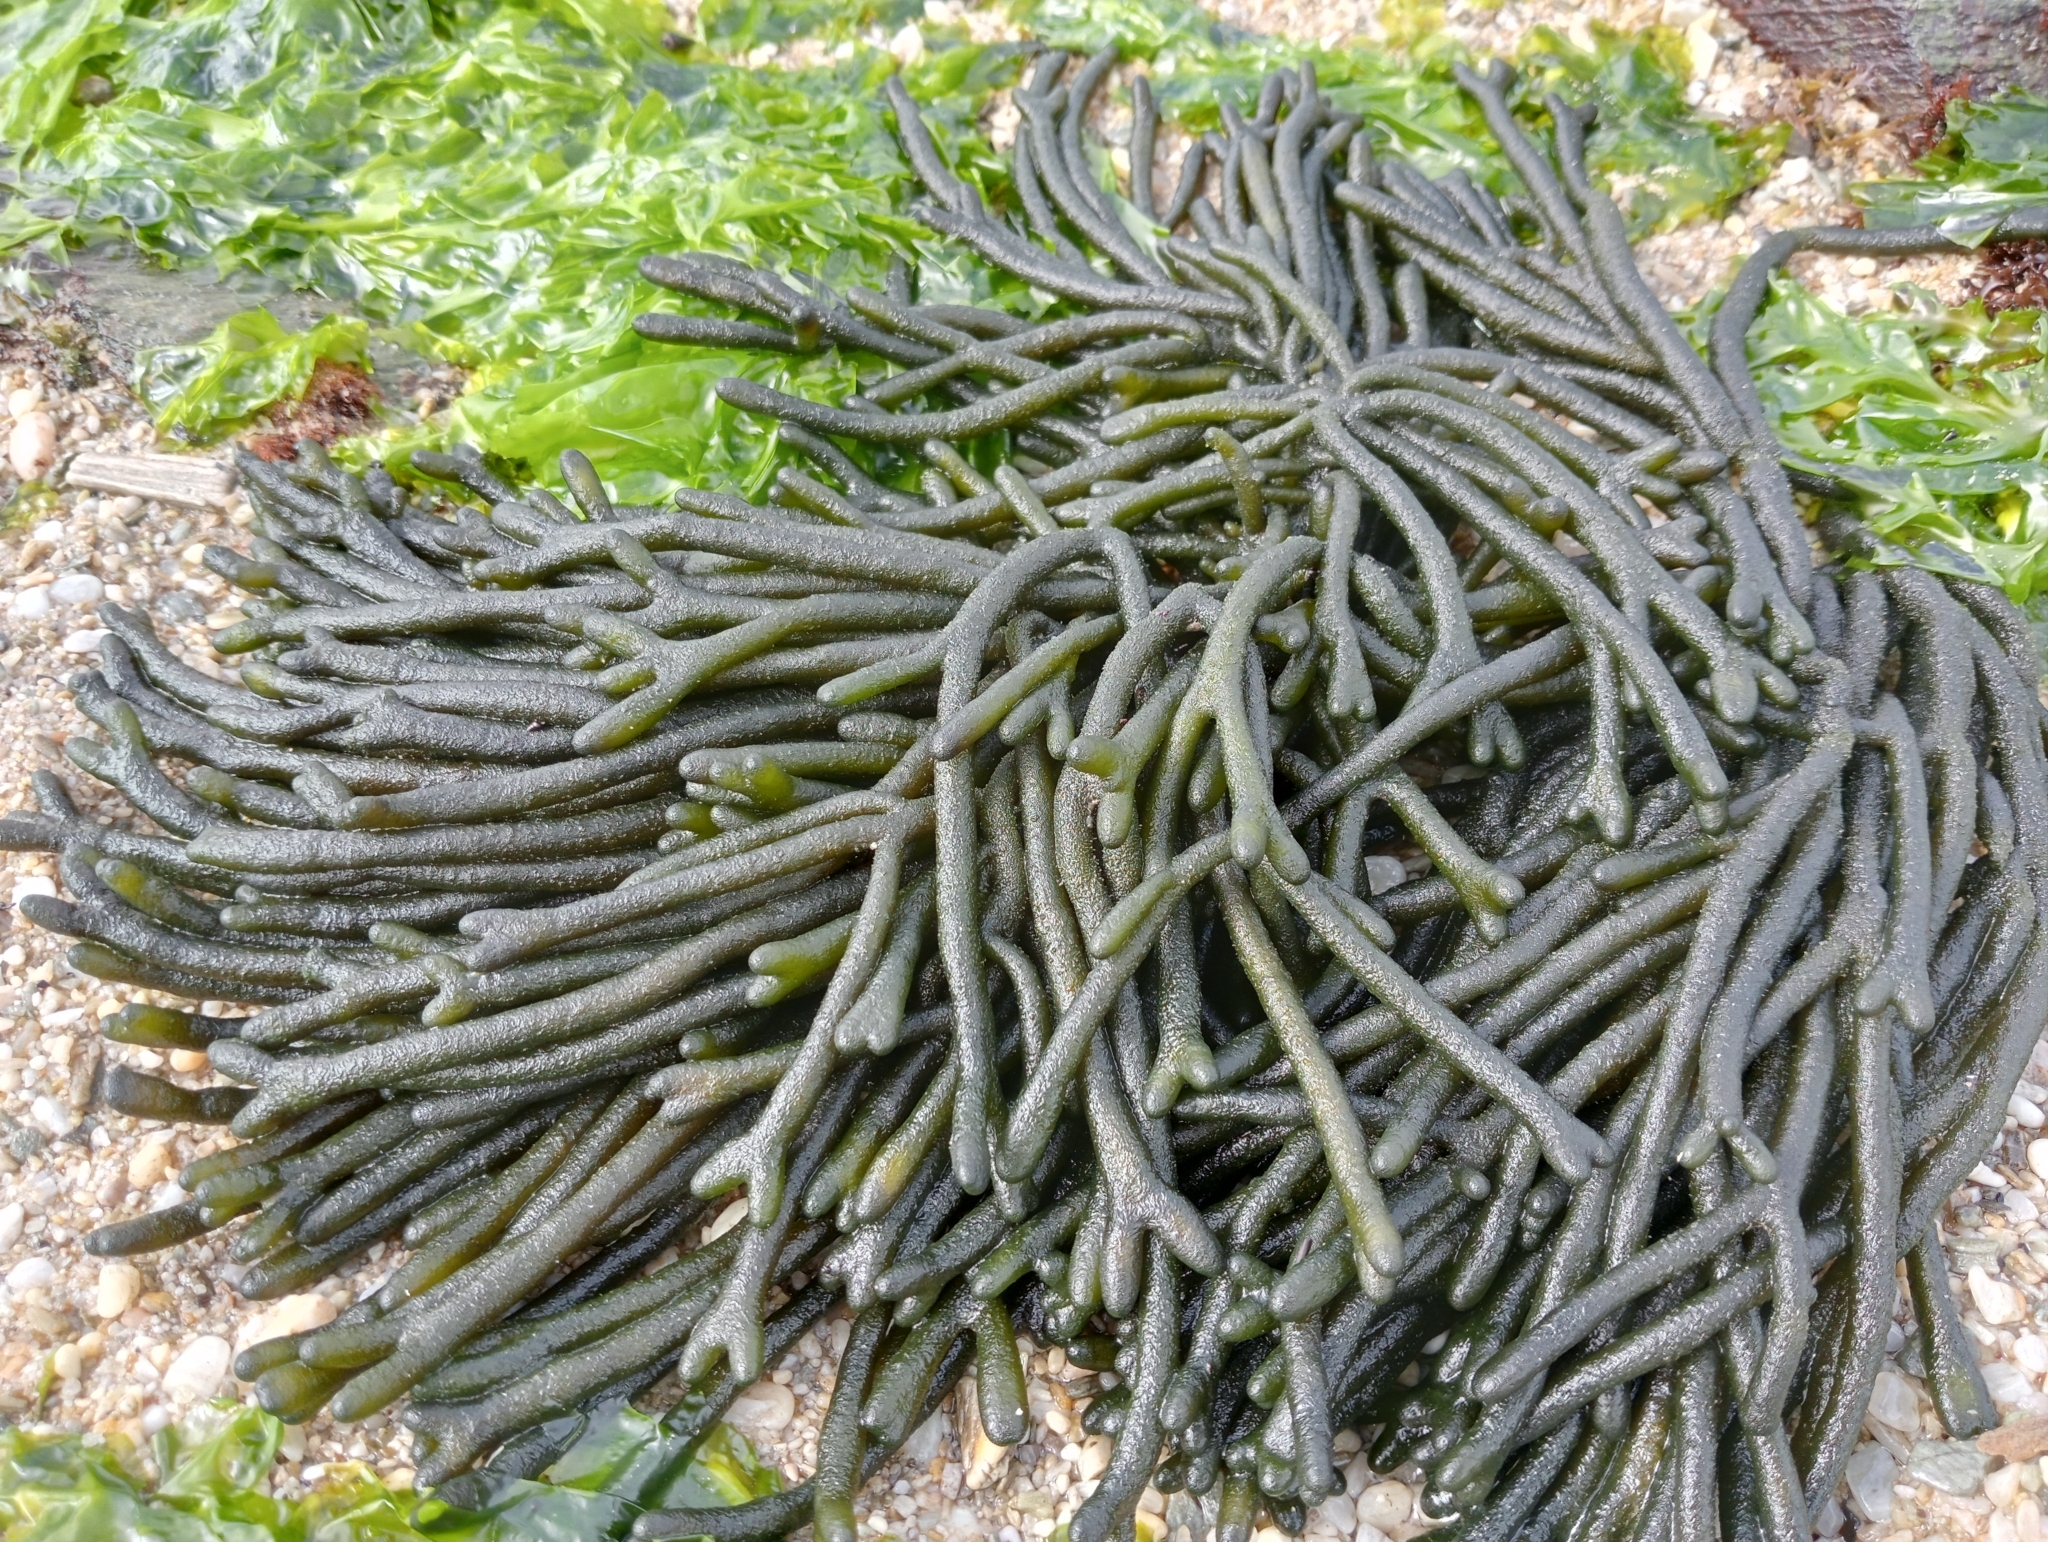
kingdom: Plantae
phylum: Chlorophyta
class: Ulvophyceae
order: Bryopsidales
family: Codiaceae
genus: Codium
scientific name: Codium fragile
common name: Dead man's fingers
